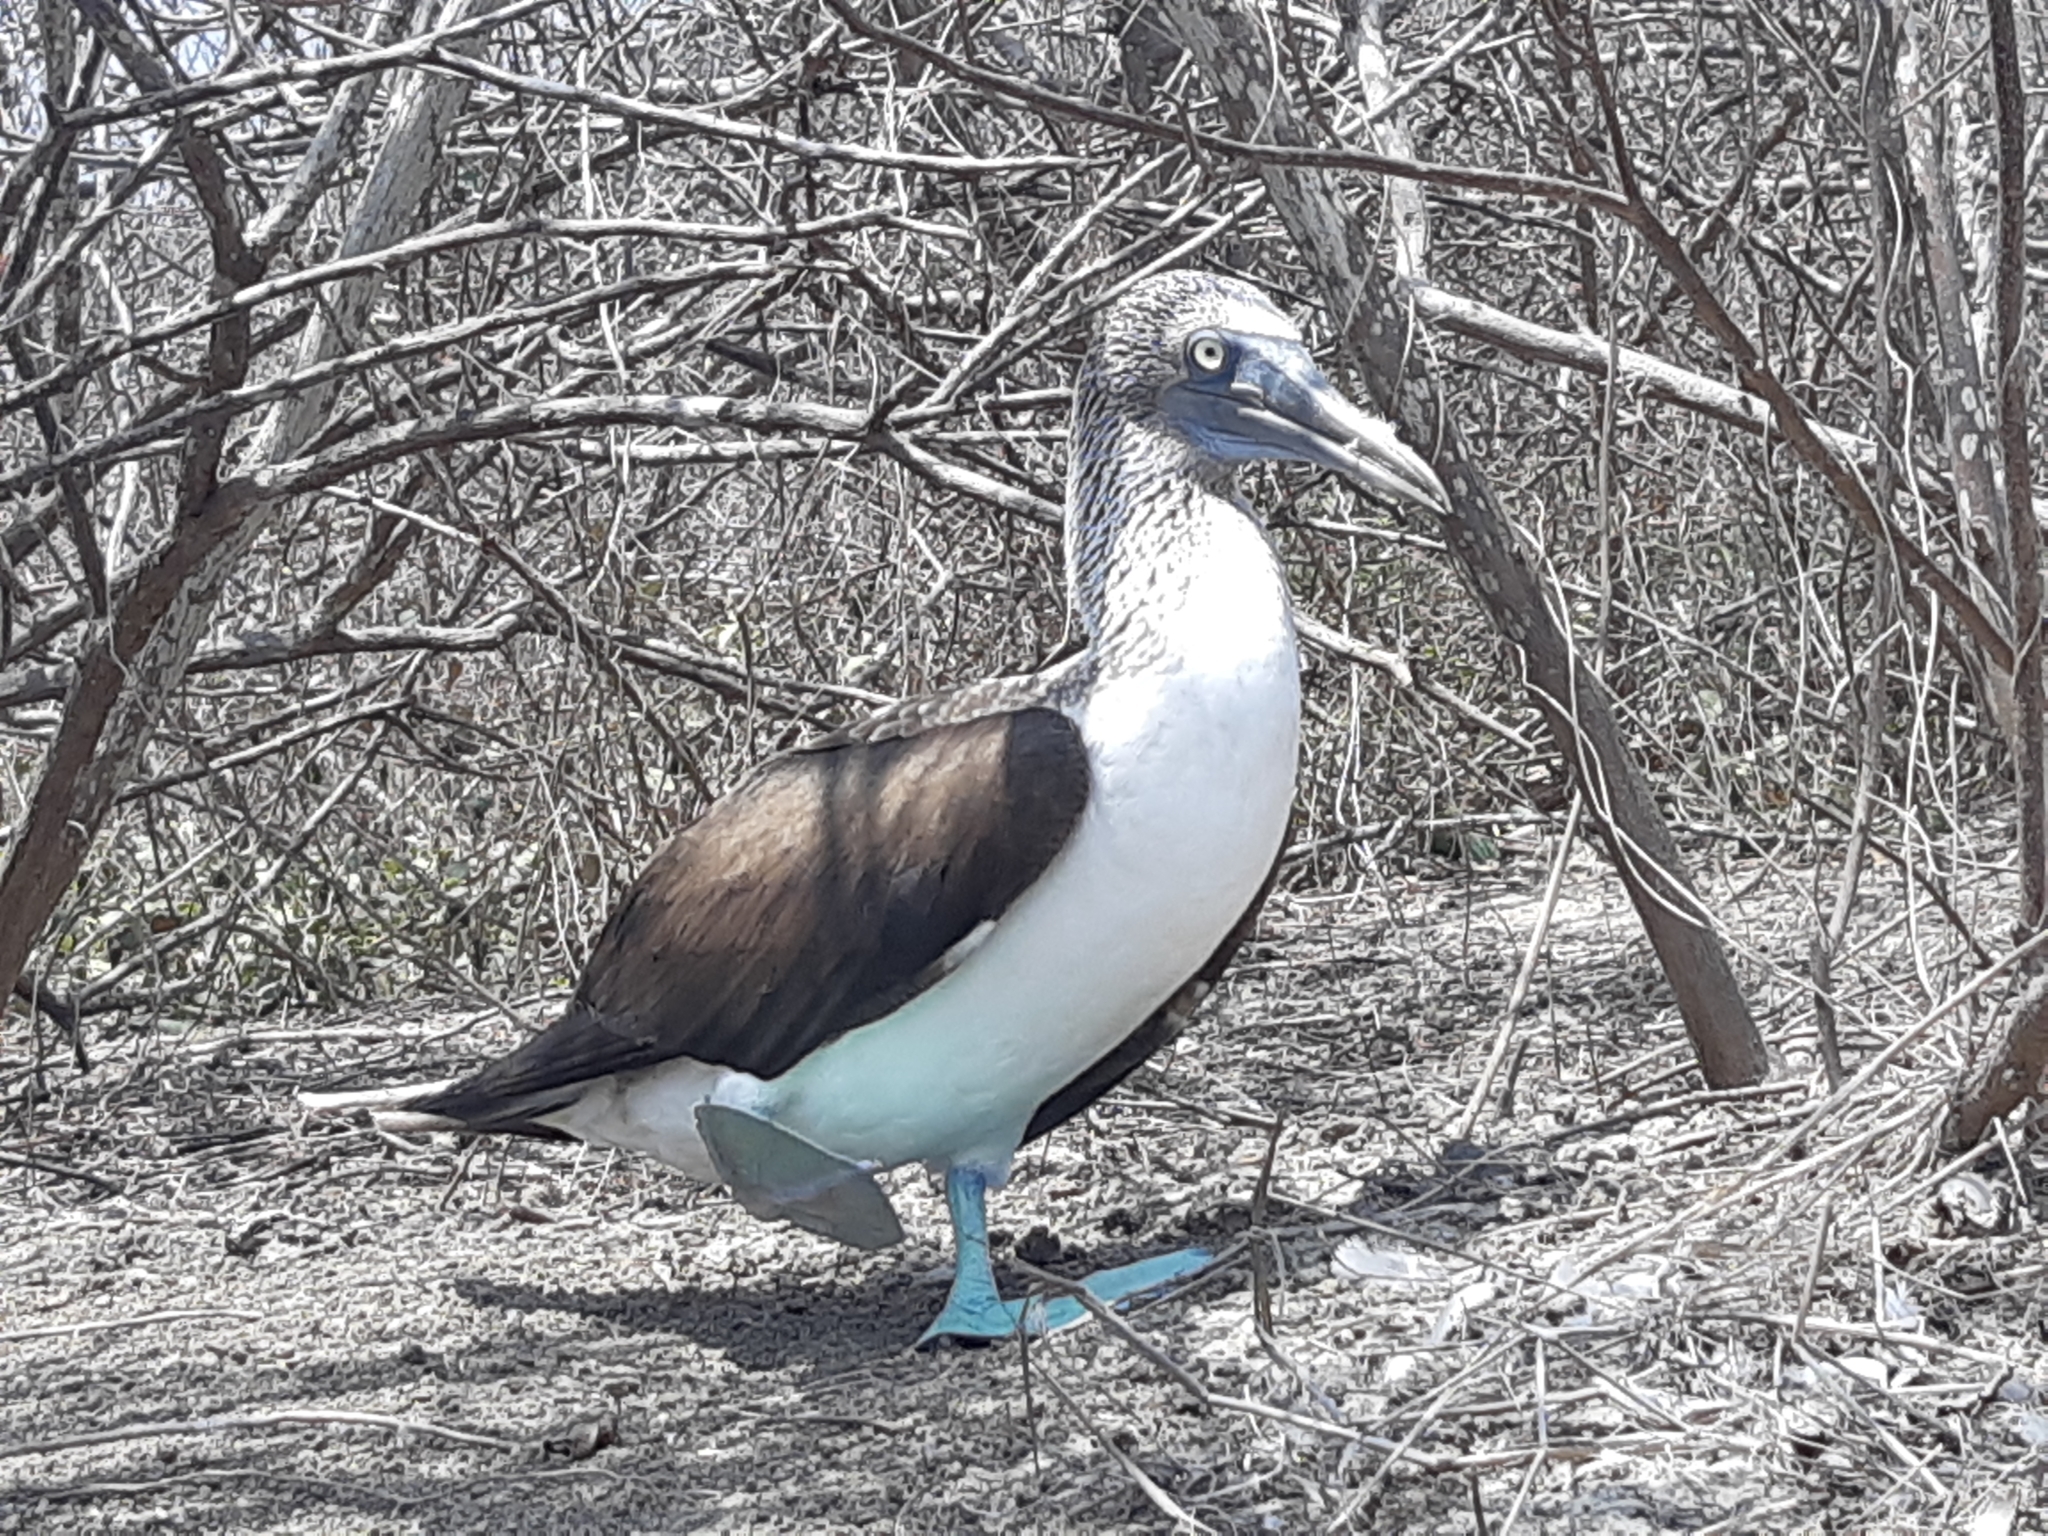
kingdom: Animalia
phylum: Chordata
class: Aves
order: Suliformes
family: Sulidae
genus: Sula
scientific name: Sula nebouxii
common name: Blue-footed booby
